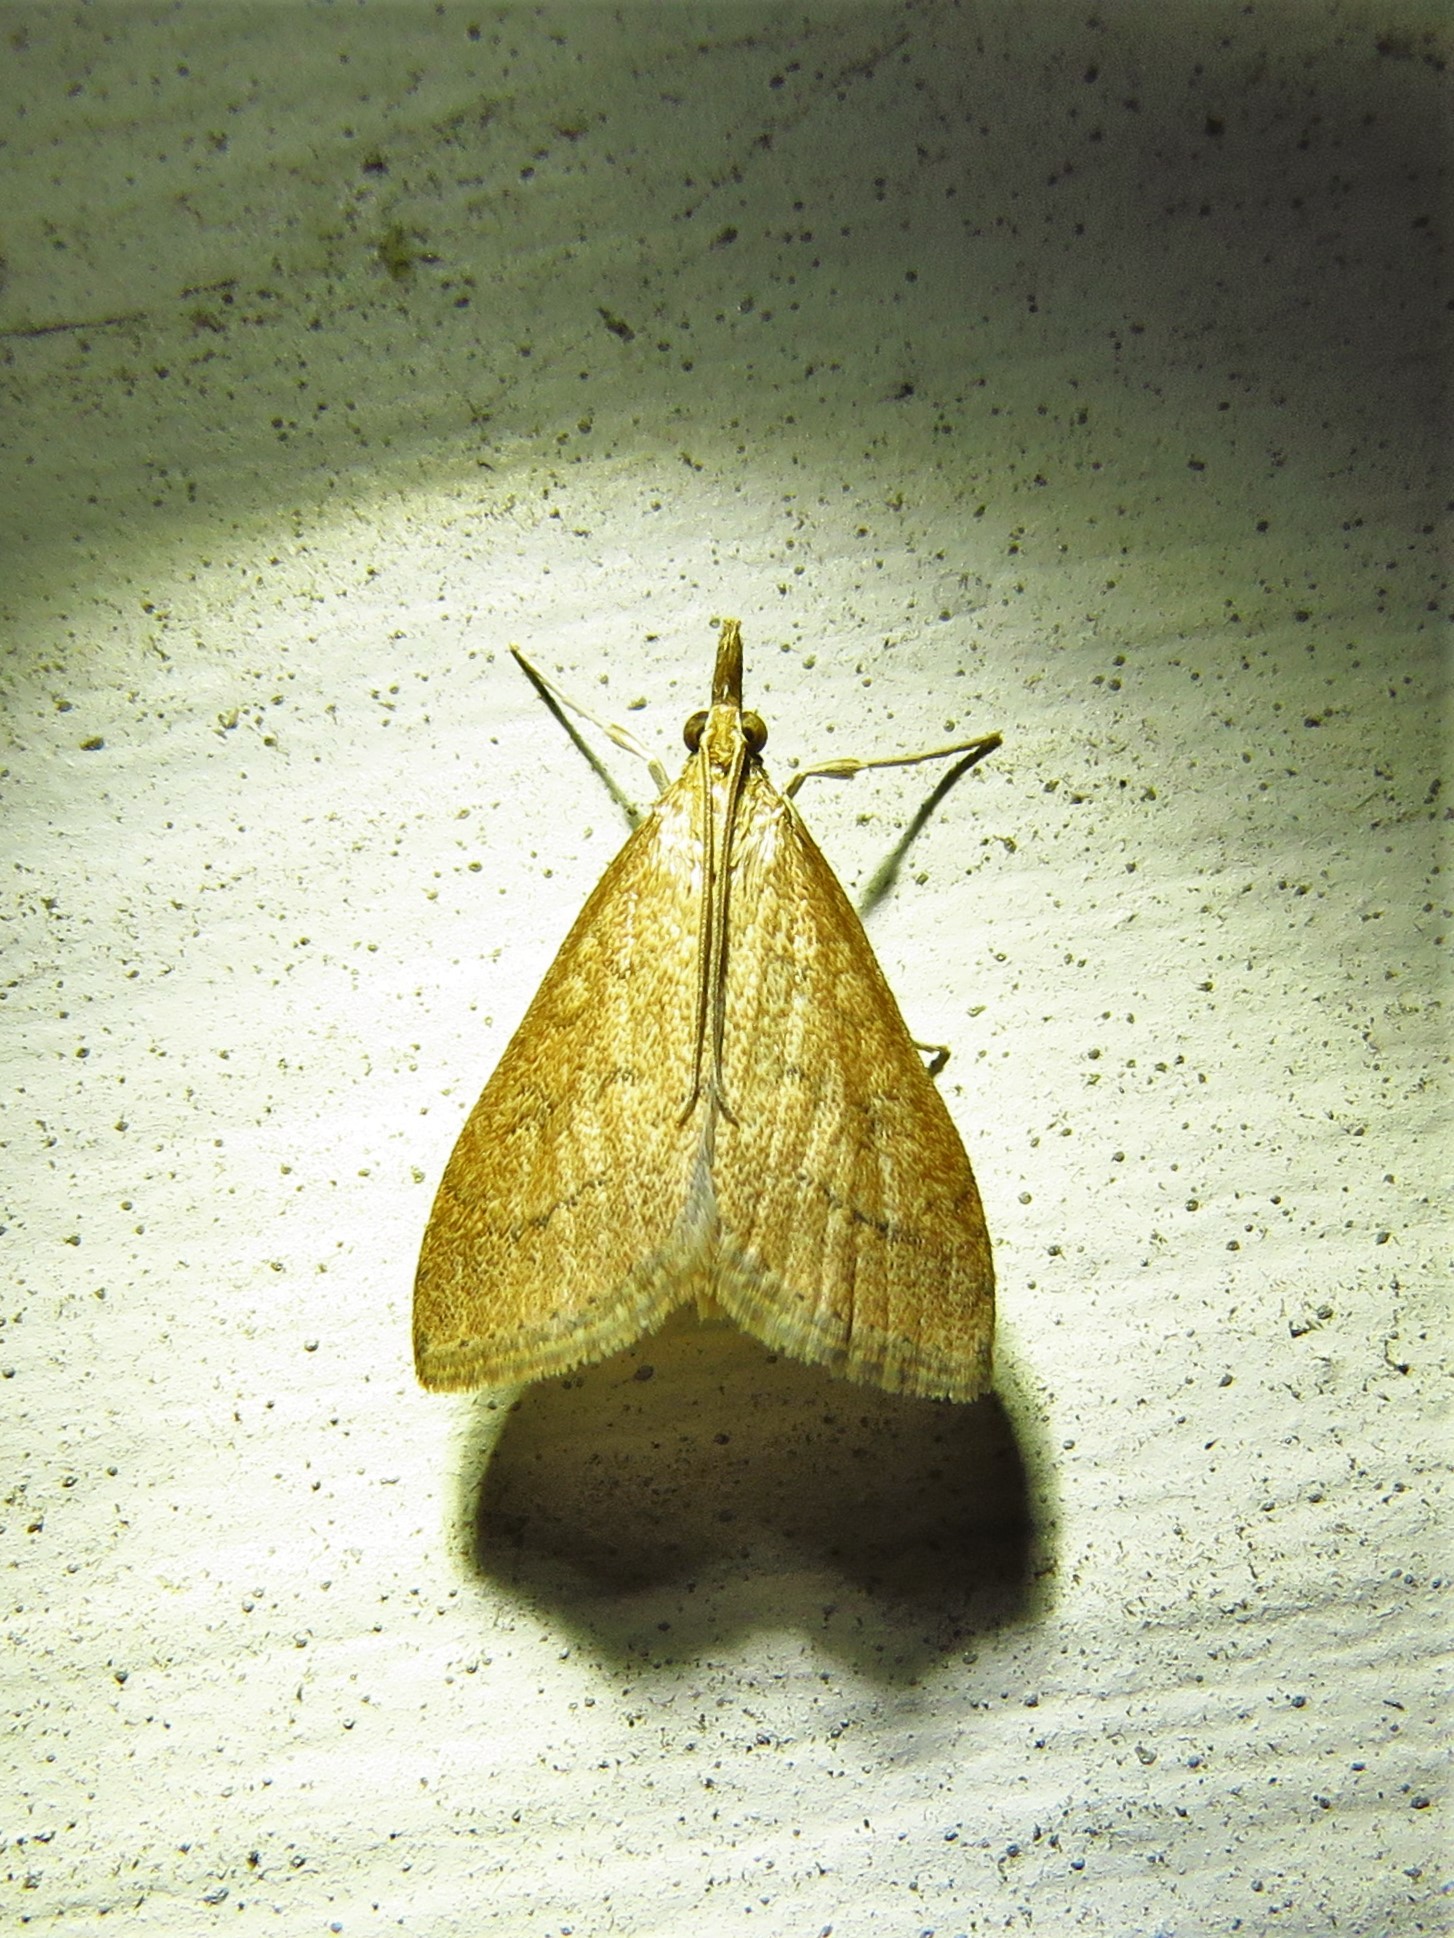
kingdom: Animalia
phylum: Arthropoda
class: Insecta
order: Lepidoptera
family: Crambidae
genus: Udea
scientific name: Udea rubigalis
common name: Celery leaftier moth
